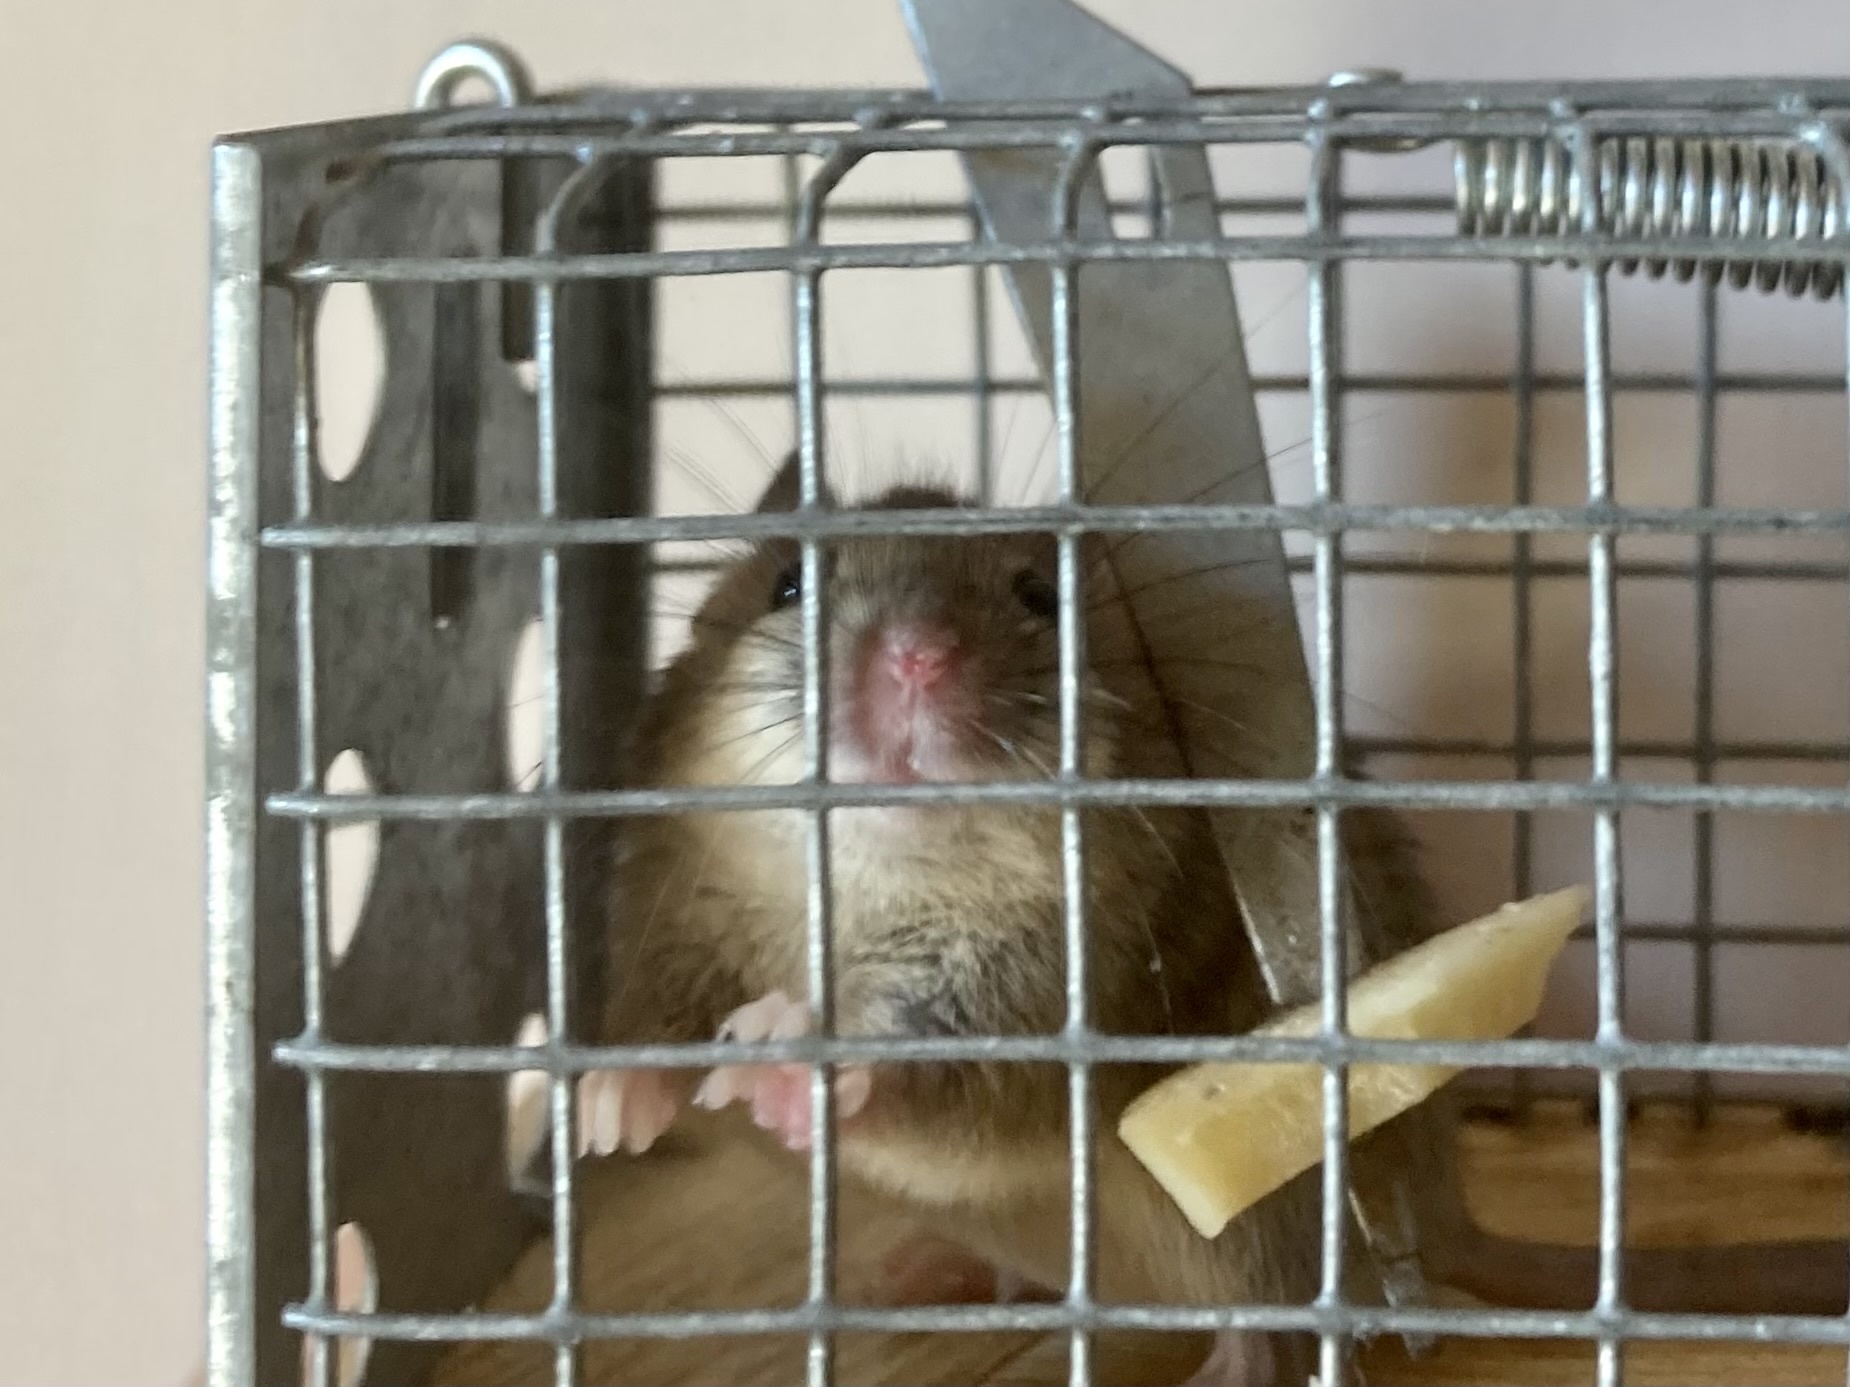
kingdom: Animalia
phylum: Chordata
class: Mammalia
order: Rodentia
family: Muridae
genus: Mus
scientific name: Mus musculus
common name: House mouse
